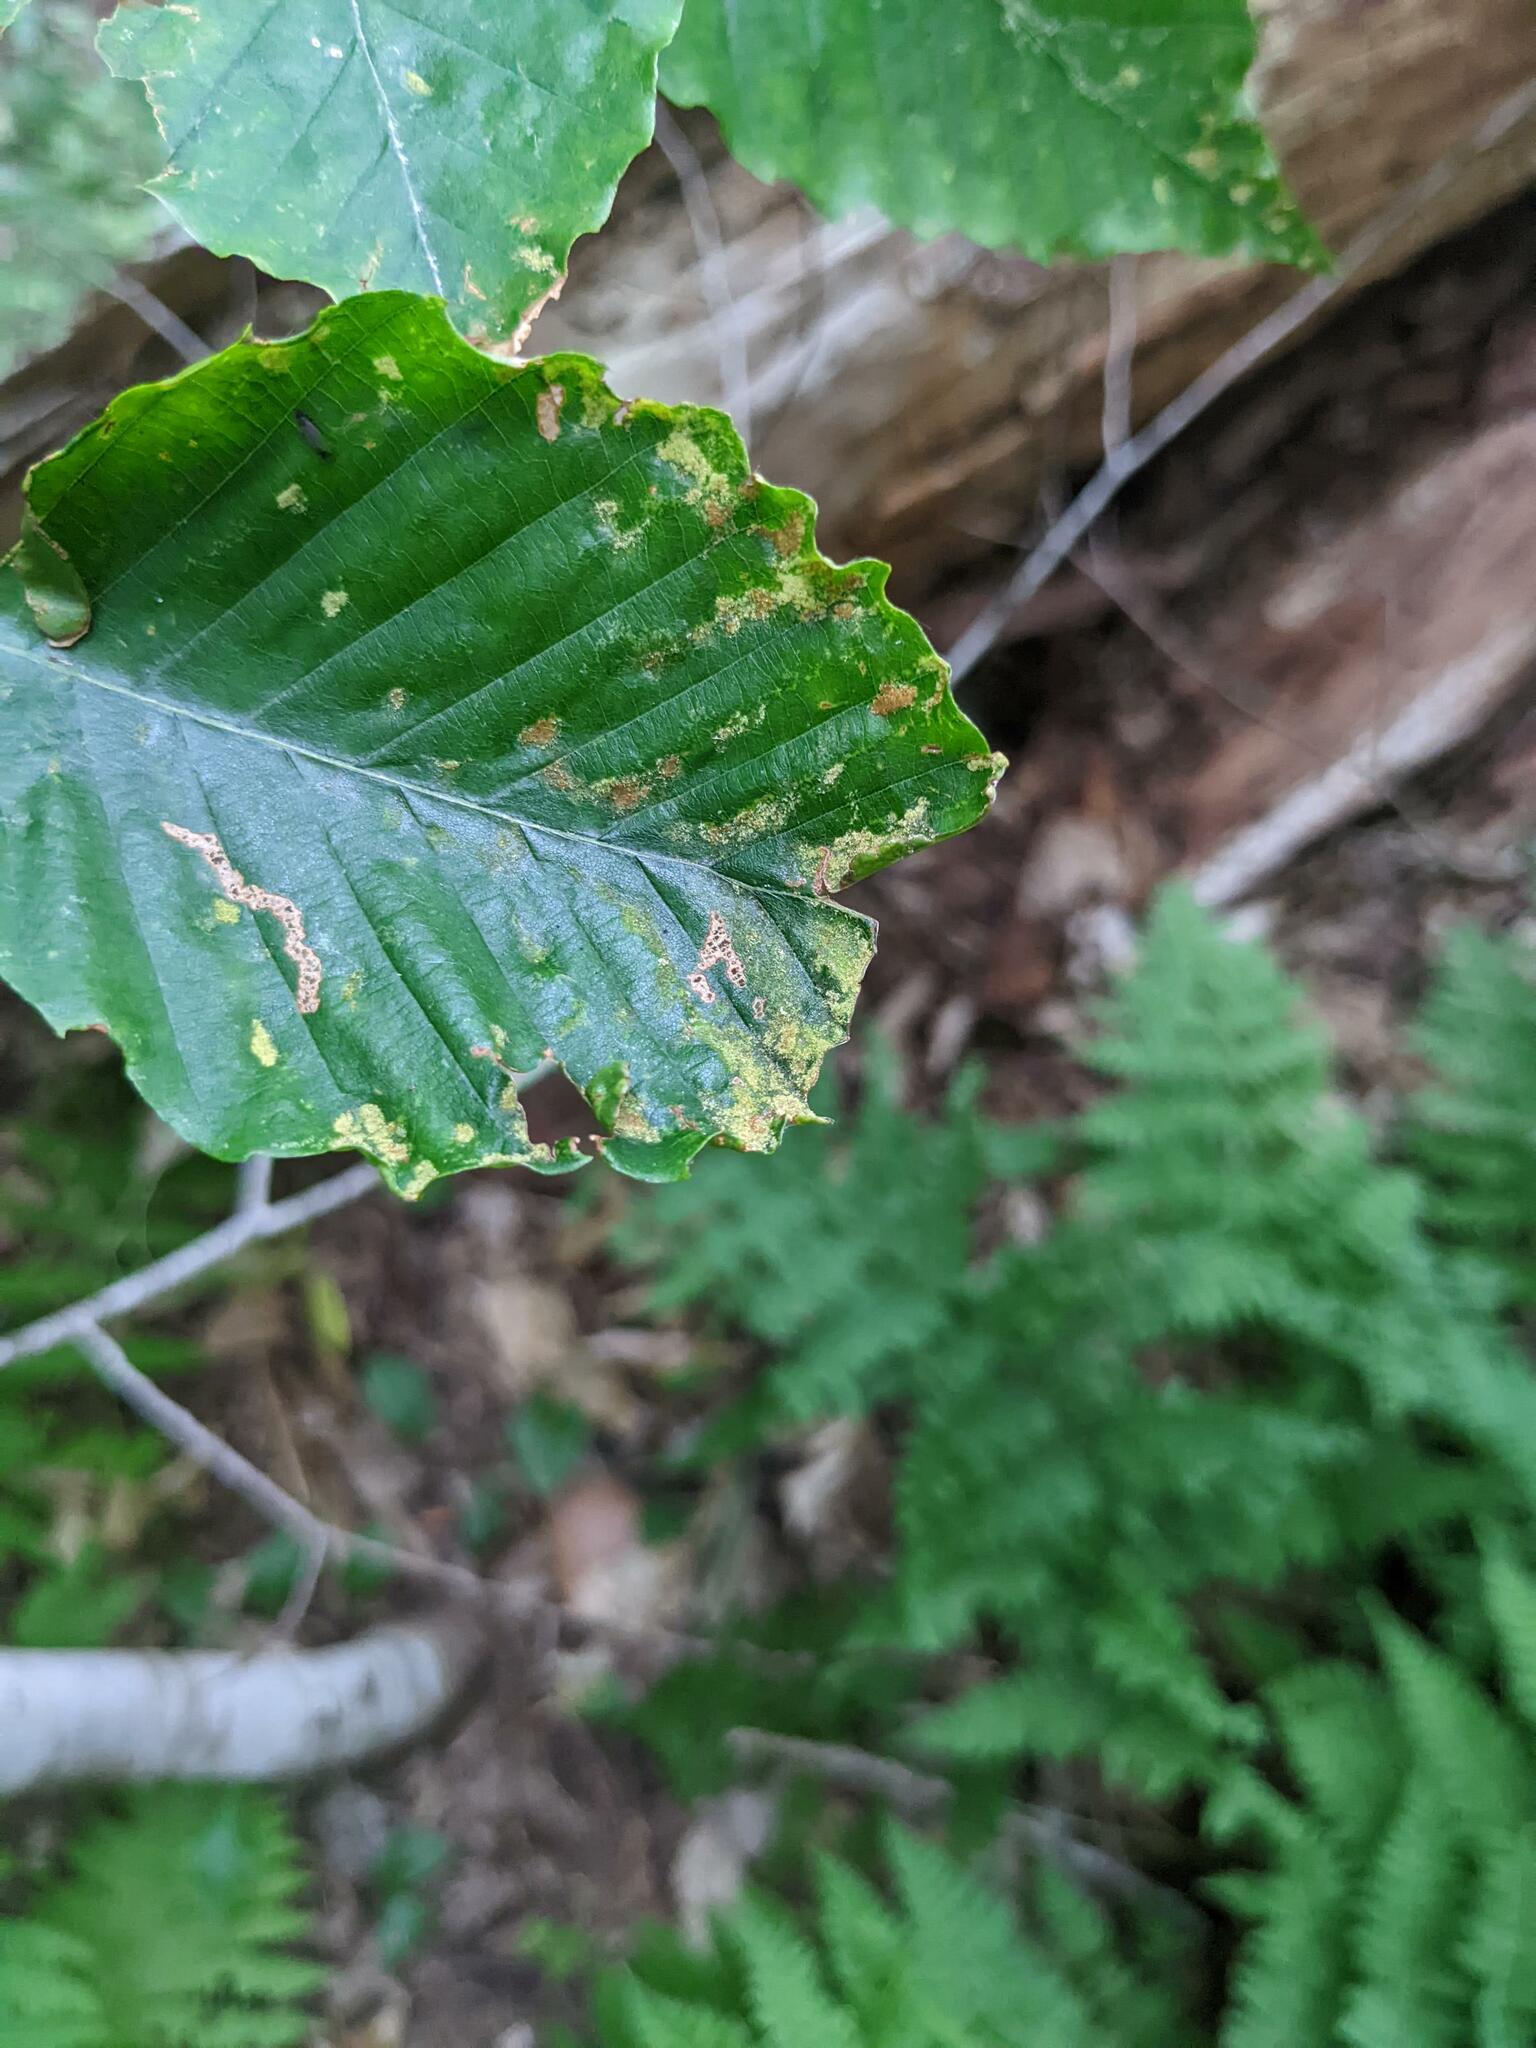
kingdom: Animalia
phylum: Arthropoda
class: Arachnida
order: Trombidiformes
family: Eriophyidae
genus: Acalitus
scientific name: Acalitus
